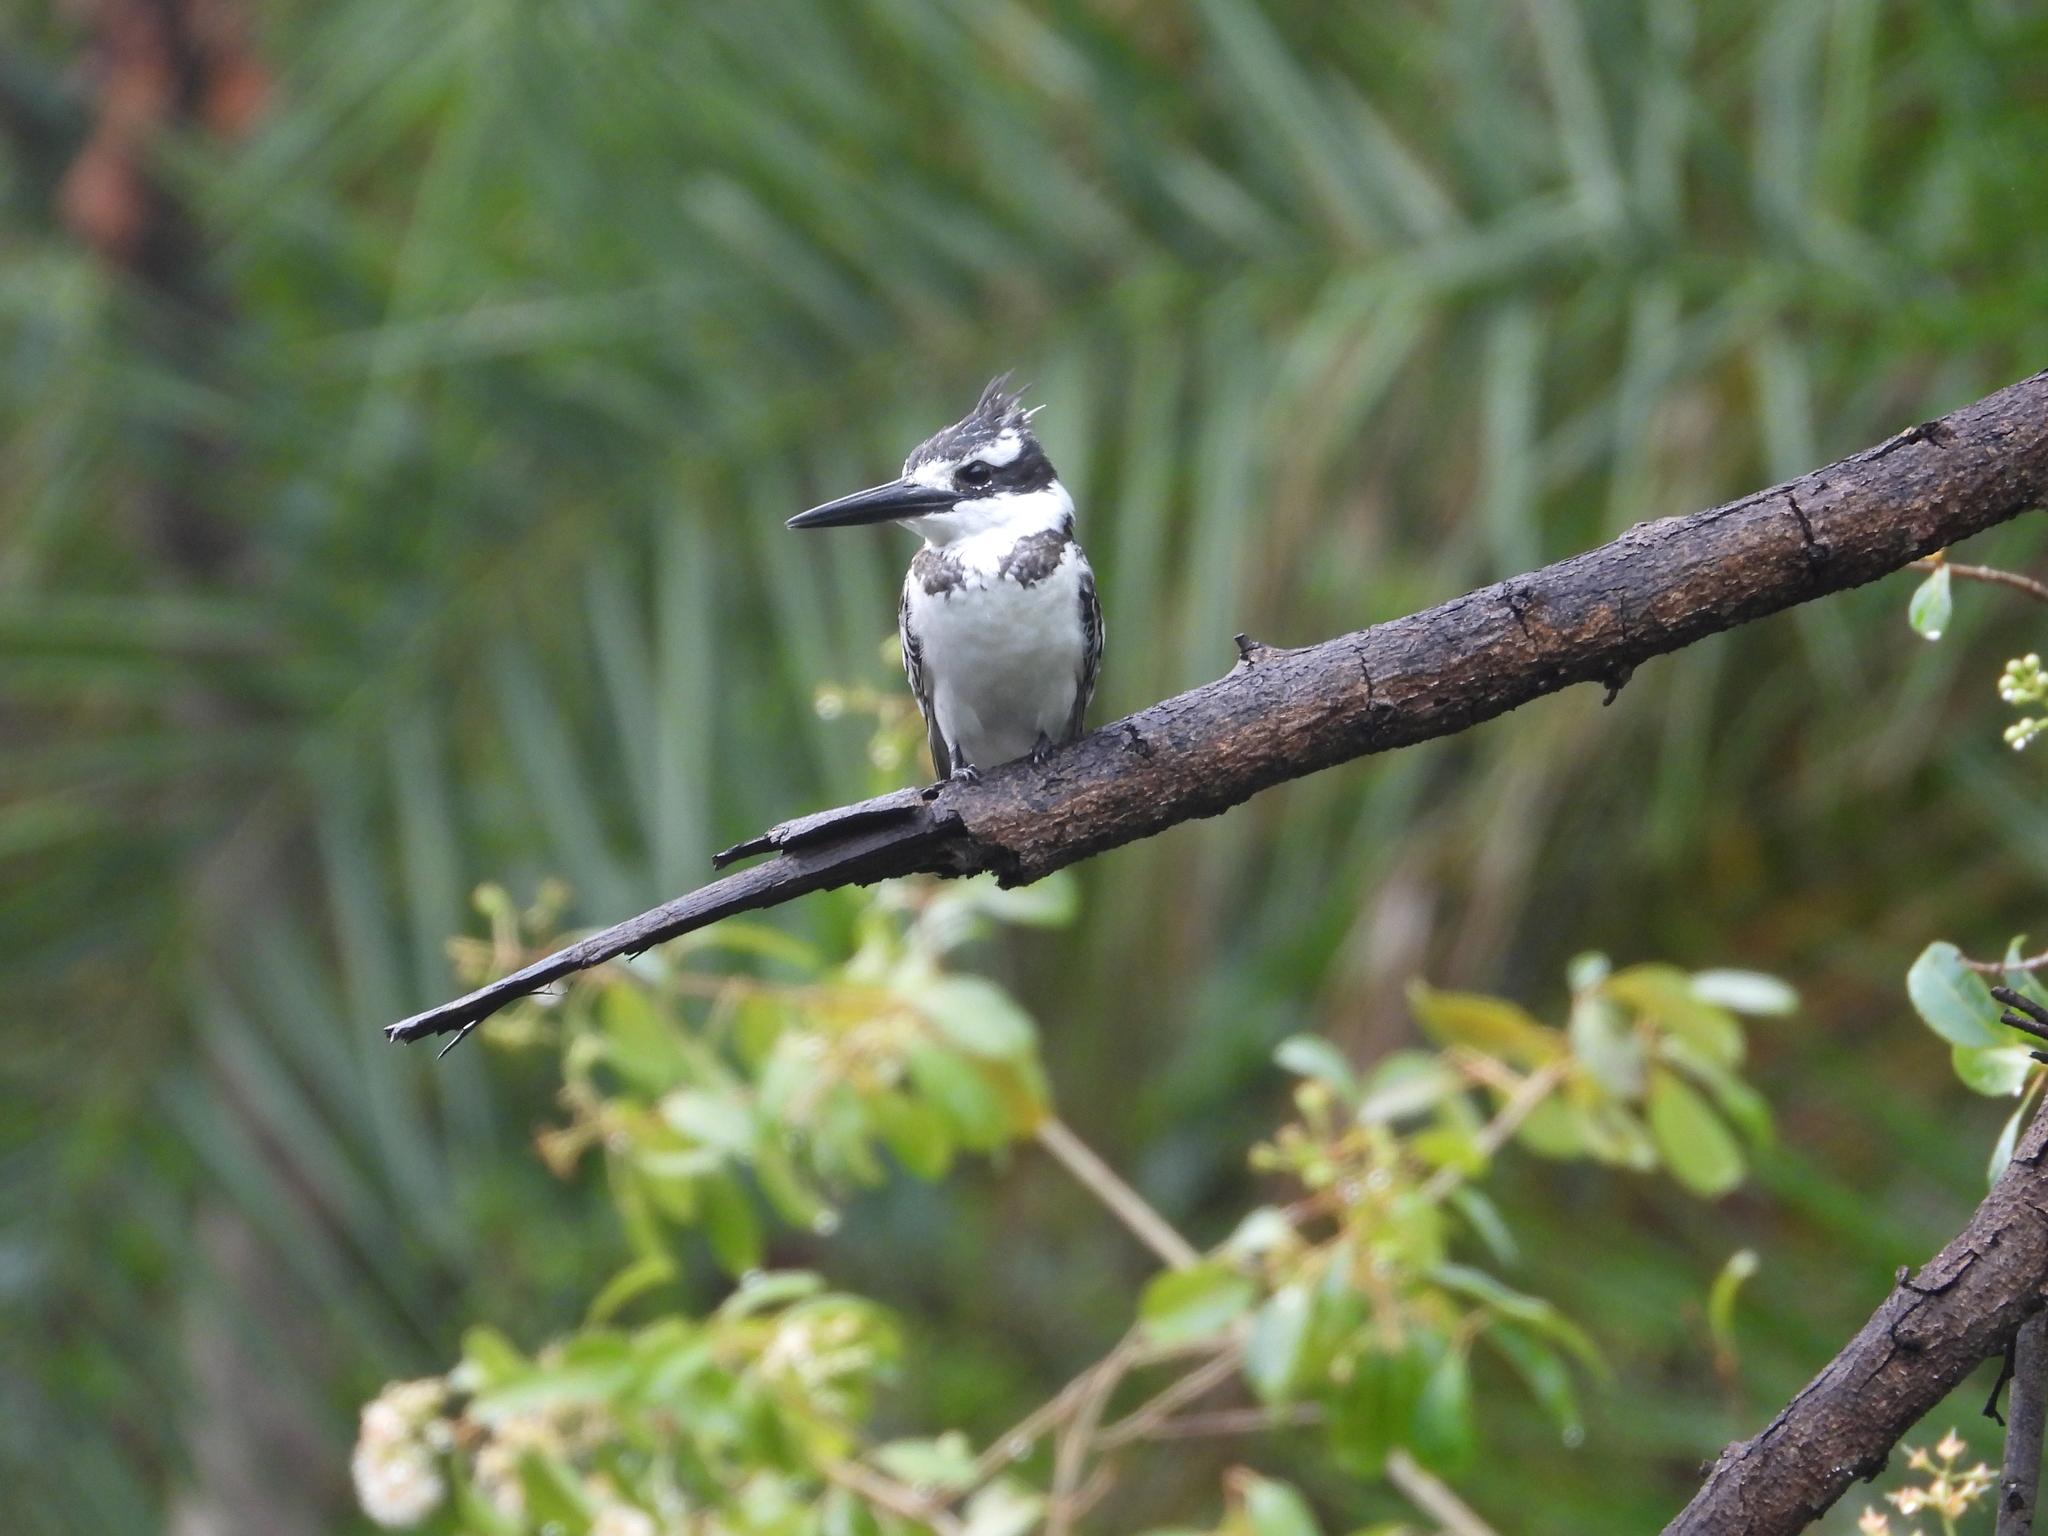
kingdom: Animalia
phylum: Chordata
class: Aves
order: Coraciiformes
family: Alcedinidae
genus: Ceryle
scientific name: Ceryle rudis
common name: Pied kingfisher
